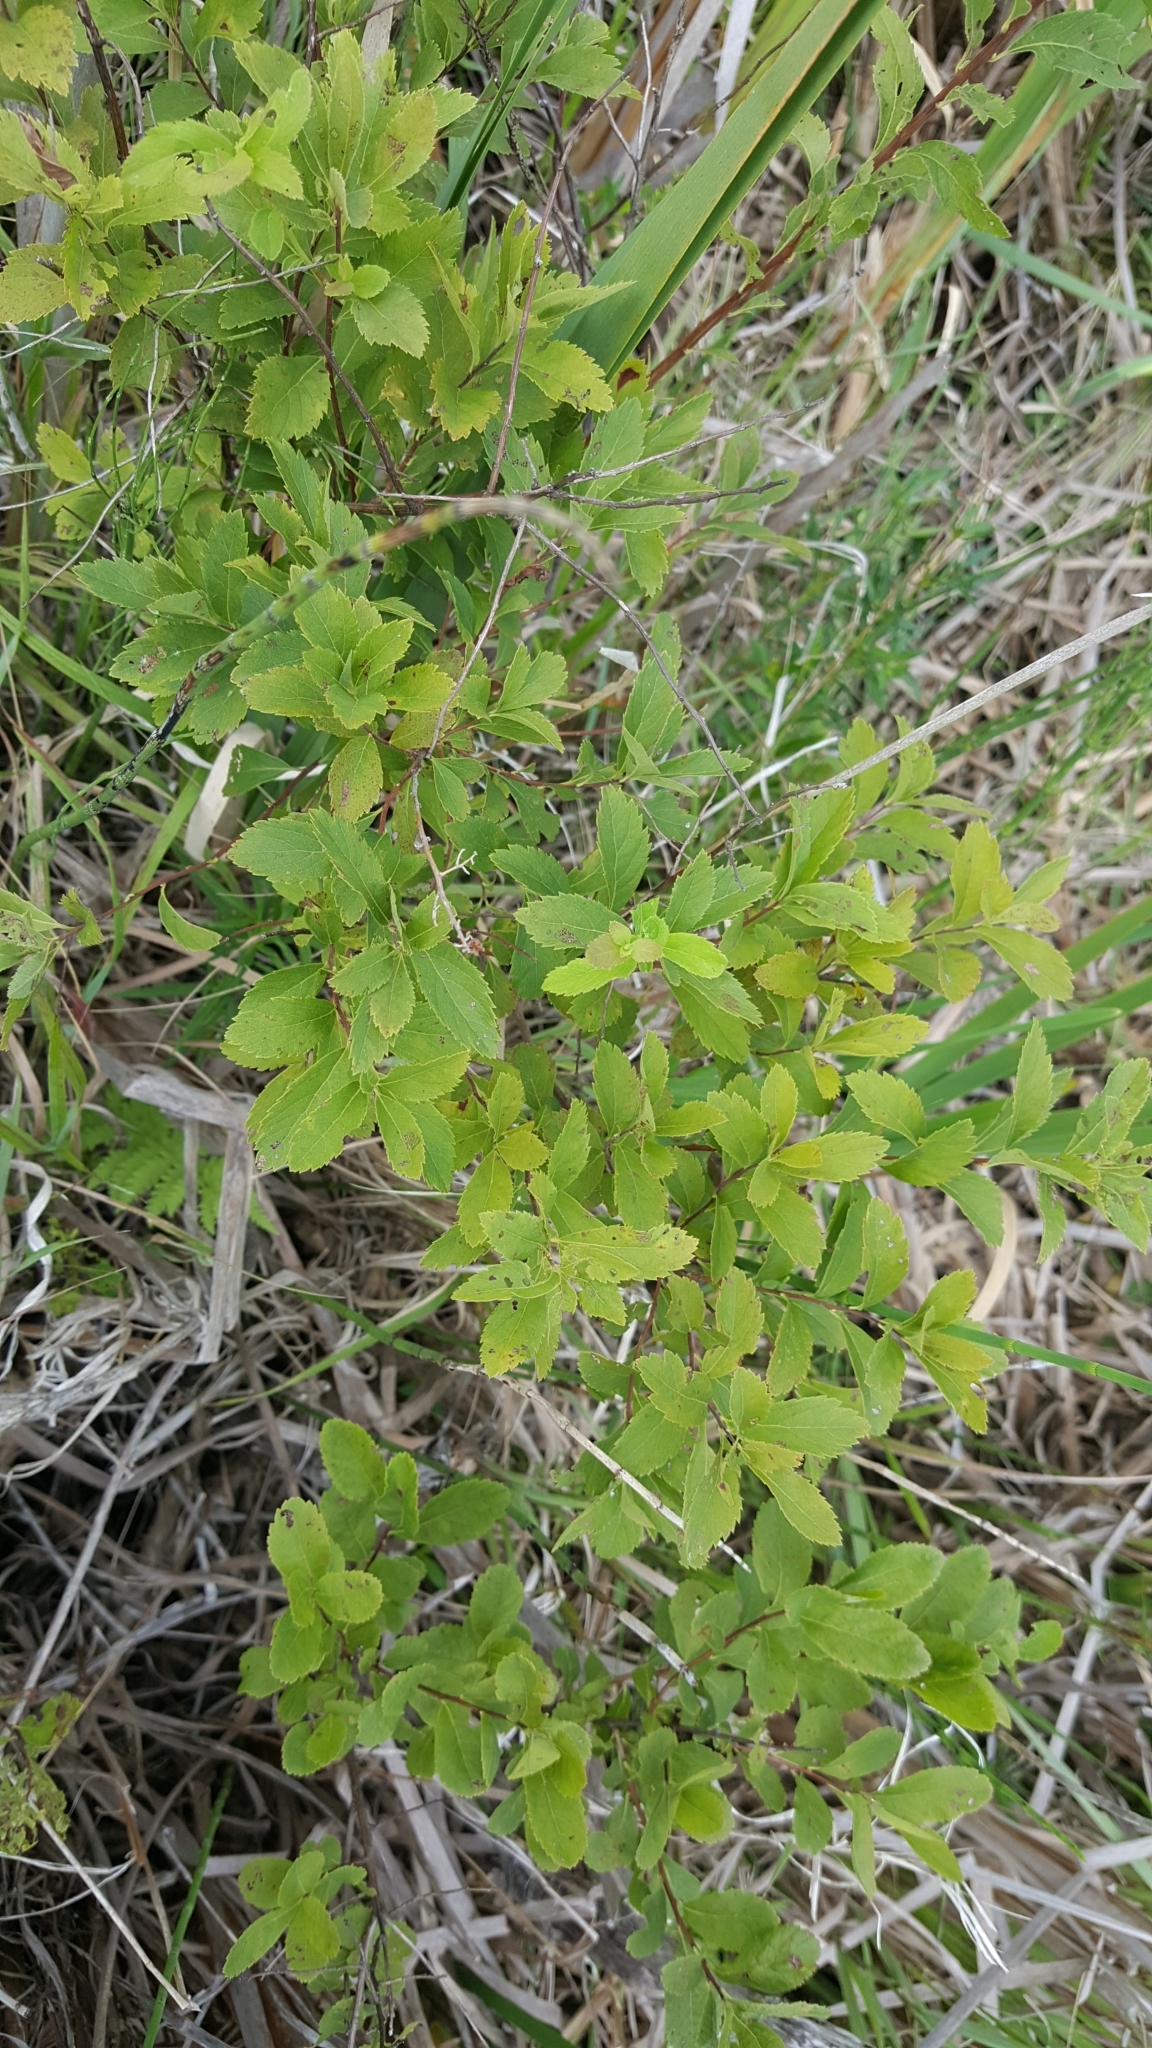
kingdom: Plantae
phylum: Tracheophyta
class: Magnoliopsida
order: Rosales
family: Rosaceae
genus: Spiraea
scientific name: Spiraea alba
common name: Pale bridewort
